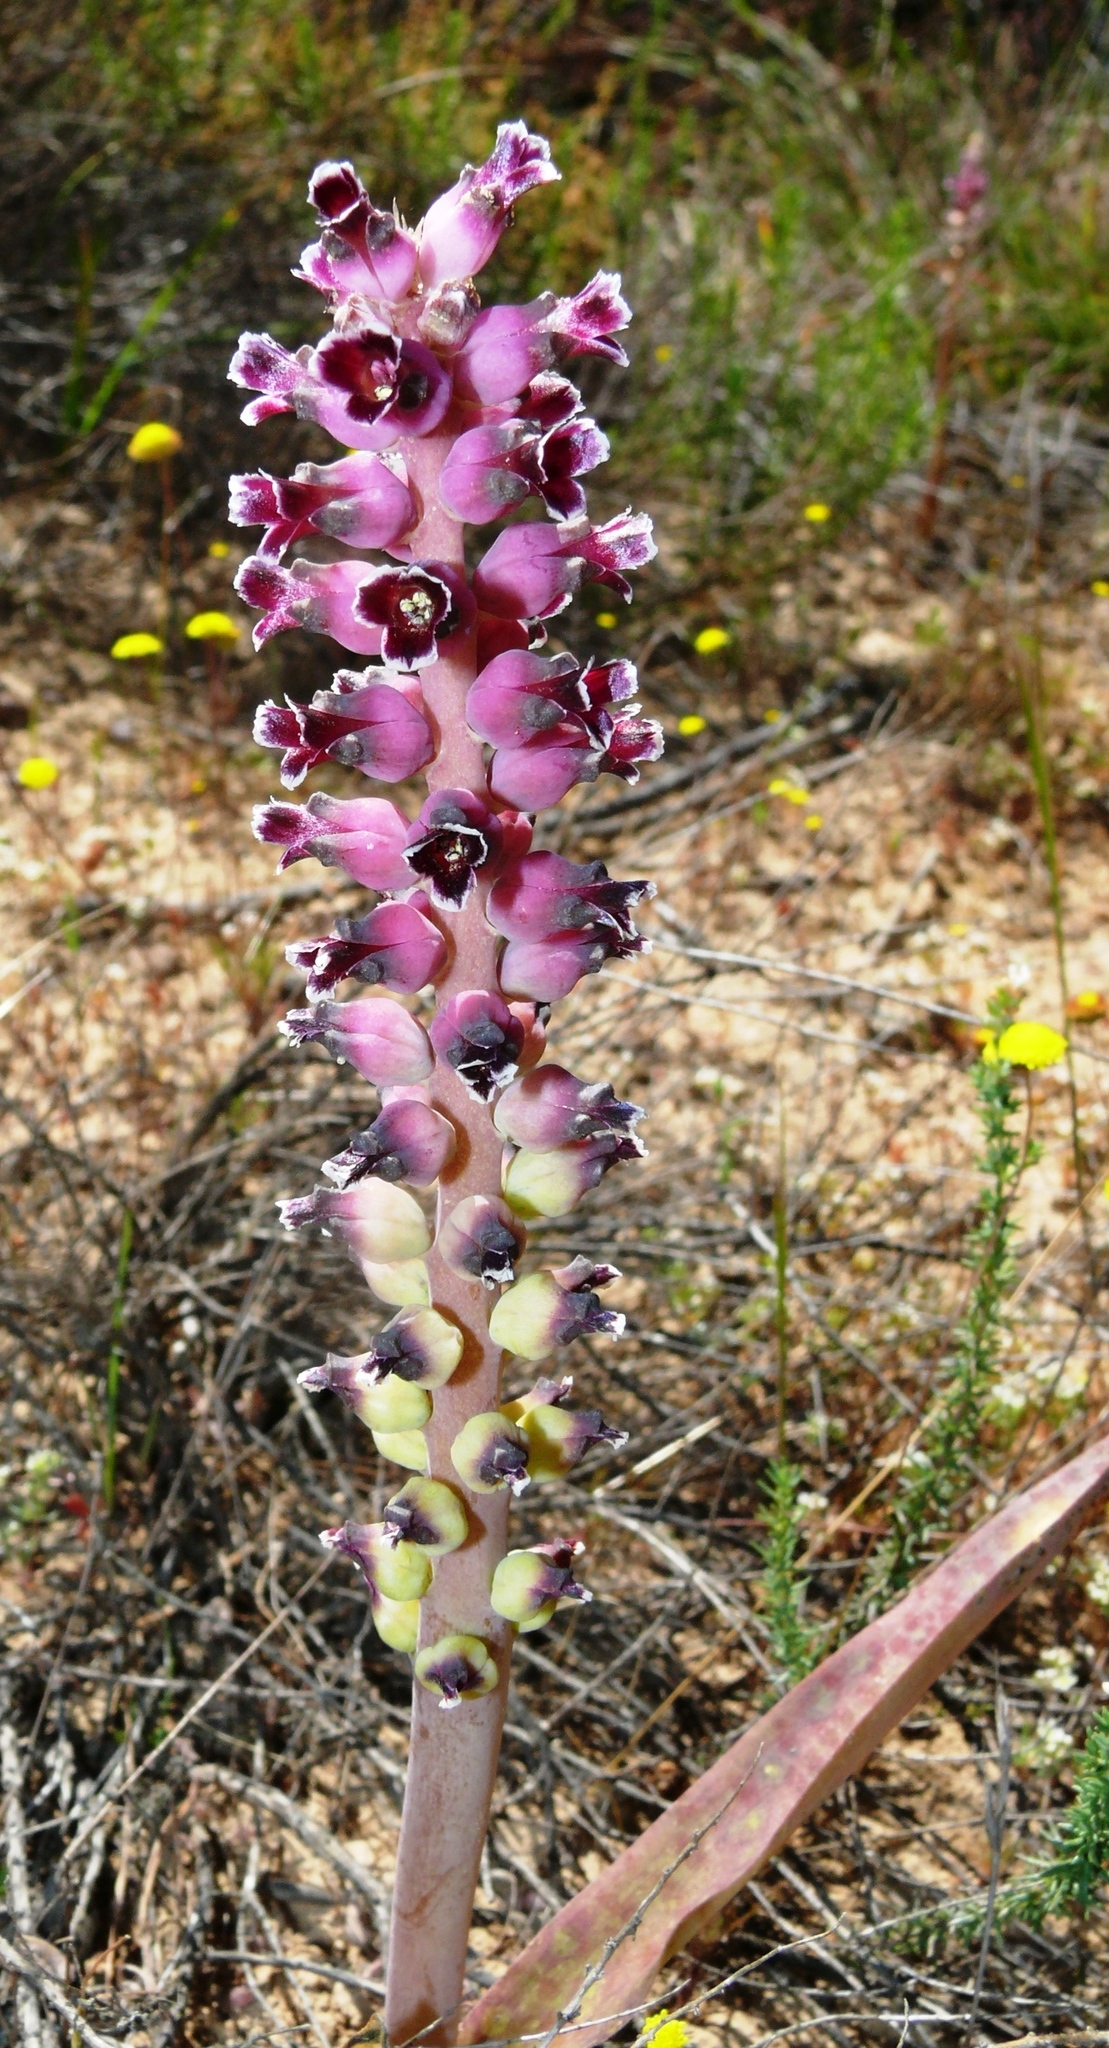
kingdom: Plantae
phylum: Tracheophyta
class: Liliopsida
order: Asparagales
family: Asparagaceae
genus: Lachenalia
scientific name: Lachenalia membranacea
